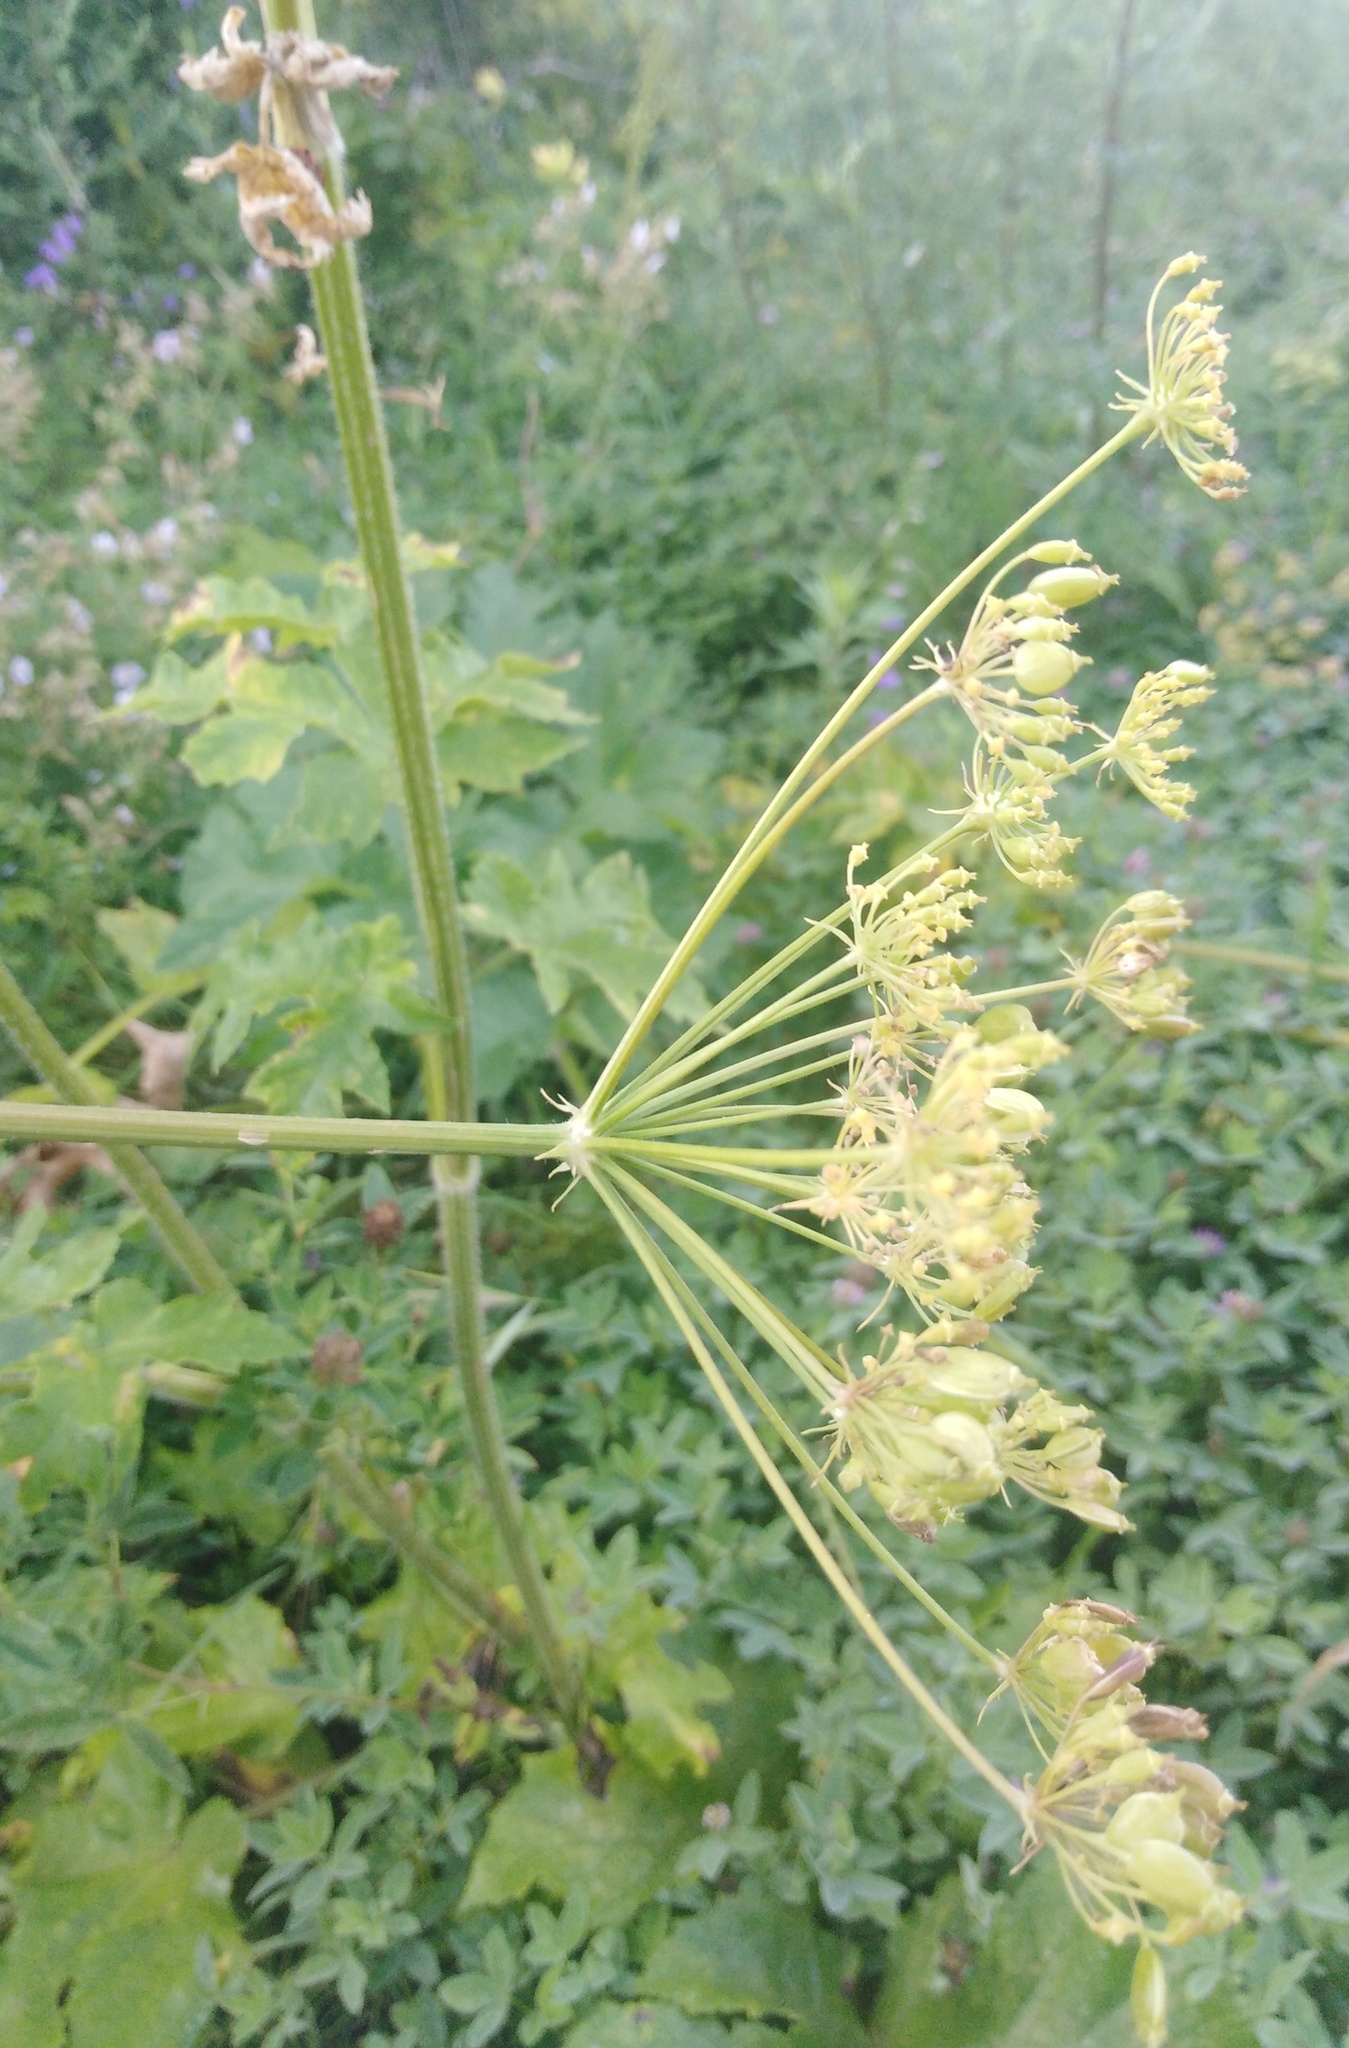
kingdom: Plantae
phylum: Tracheophyta
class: Magnoliopsida
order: Apiales
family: Apiaceae
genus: Heracleum
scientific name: Heracleum sphondylium
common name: Hogweed
